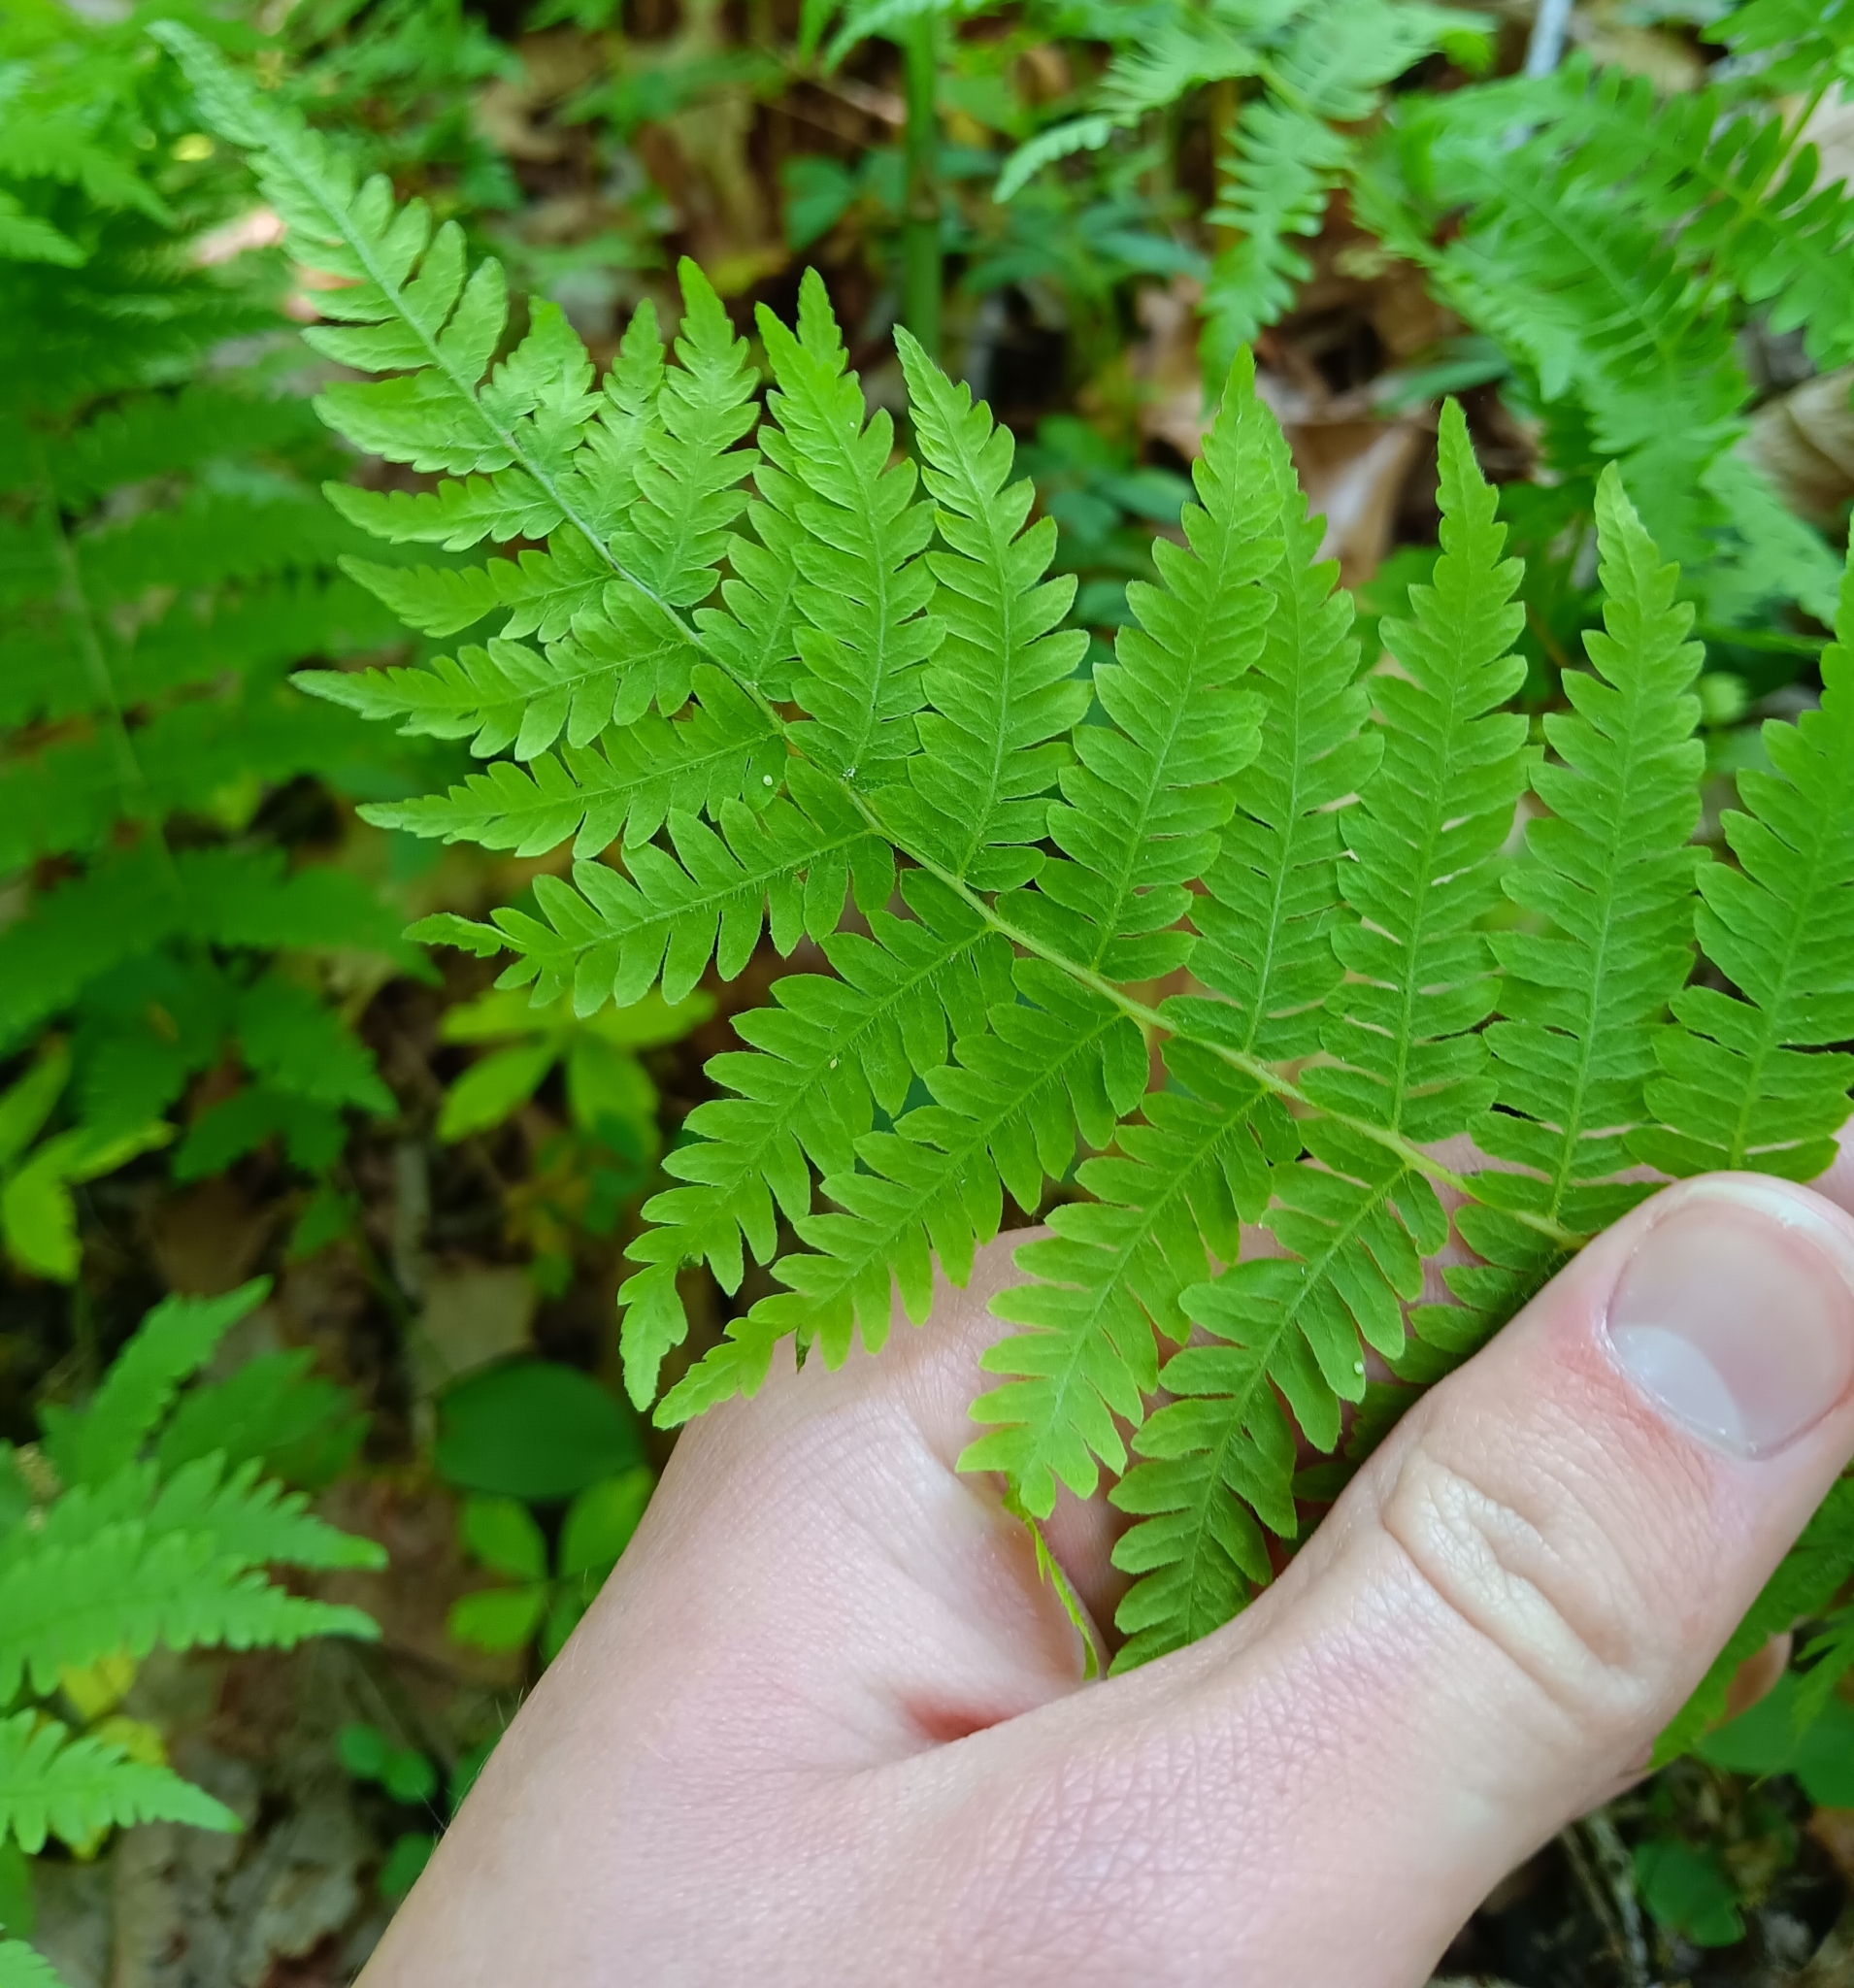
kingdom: Plantae
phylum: Tracheophyta
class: Polypodiopsida
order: Polypodiales
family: Thelypteridaceae
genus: Amauropelta
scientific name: Amauropelta noveboracensis
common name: New york fern
